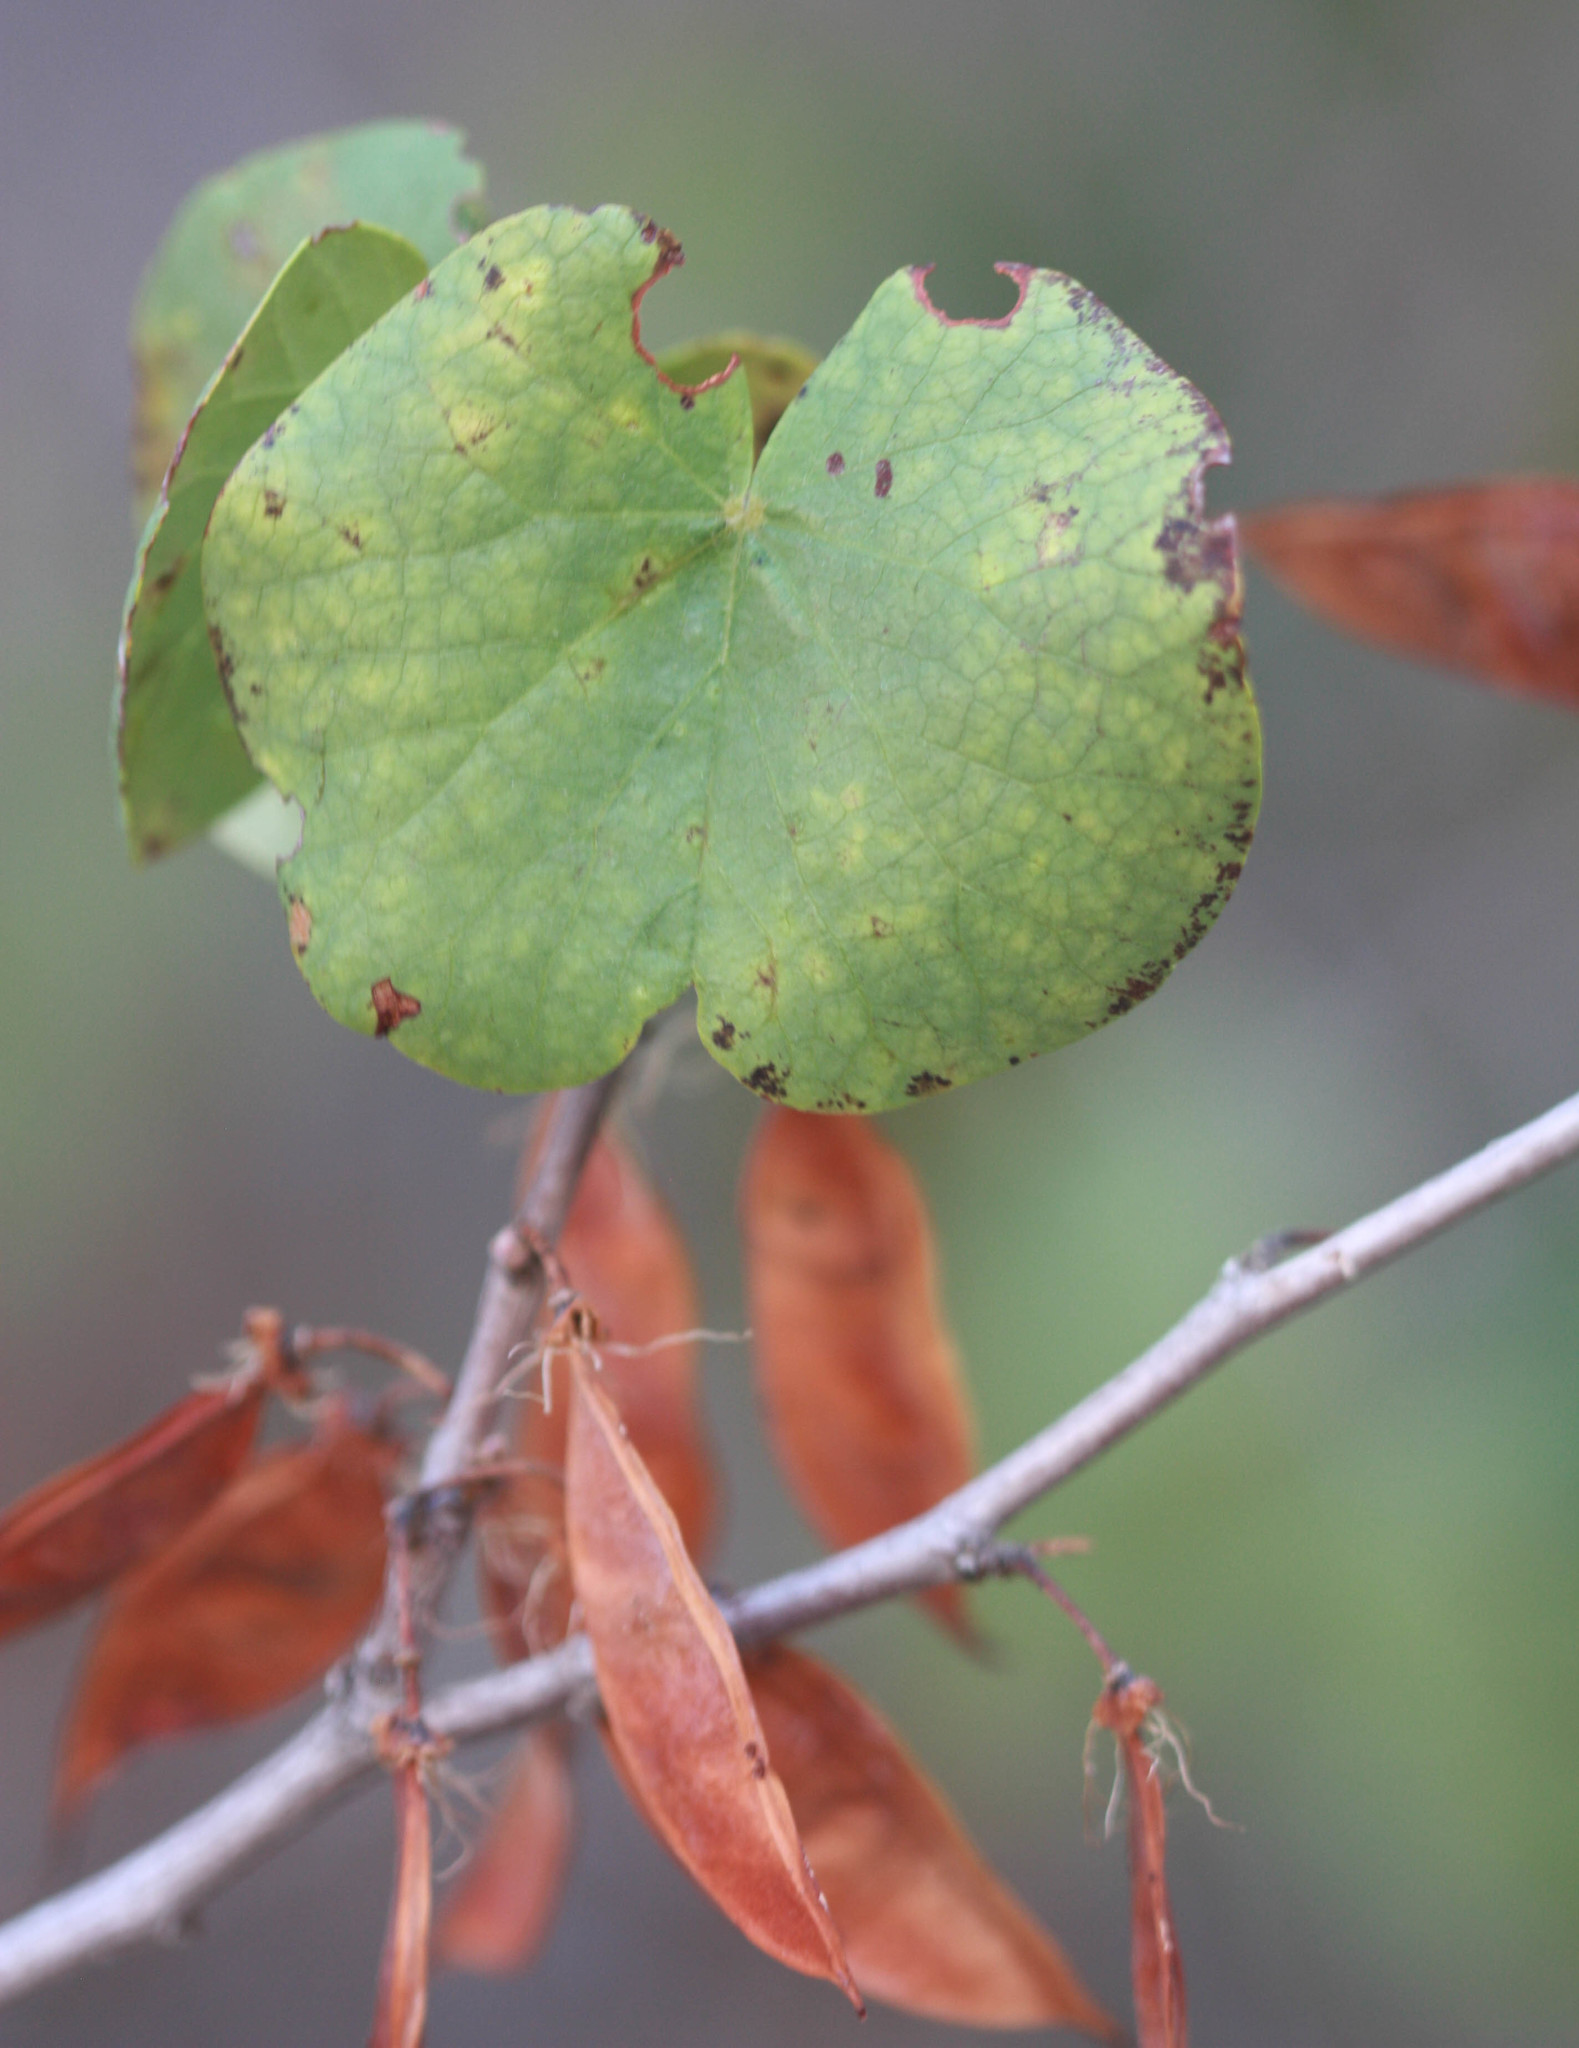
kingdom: Plantae
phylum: Tracheophyta
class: Magnoliopsida
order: Fabales
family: Fabaceae
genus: Cercis
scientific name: Cercis occidentalis
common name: California redbud
